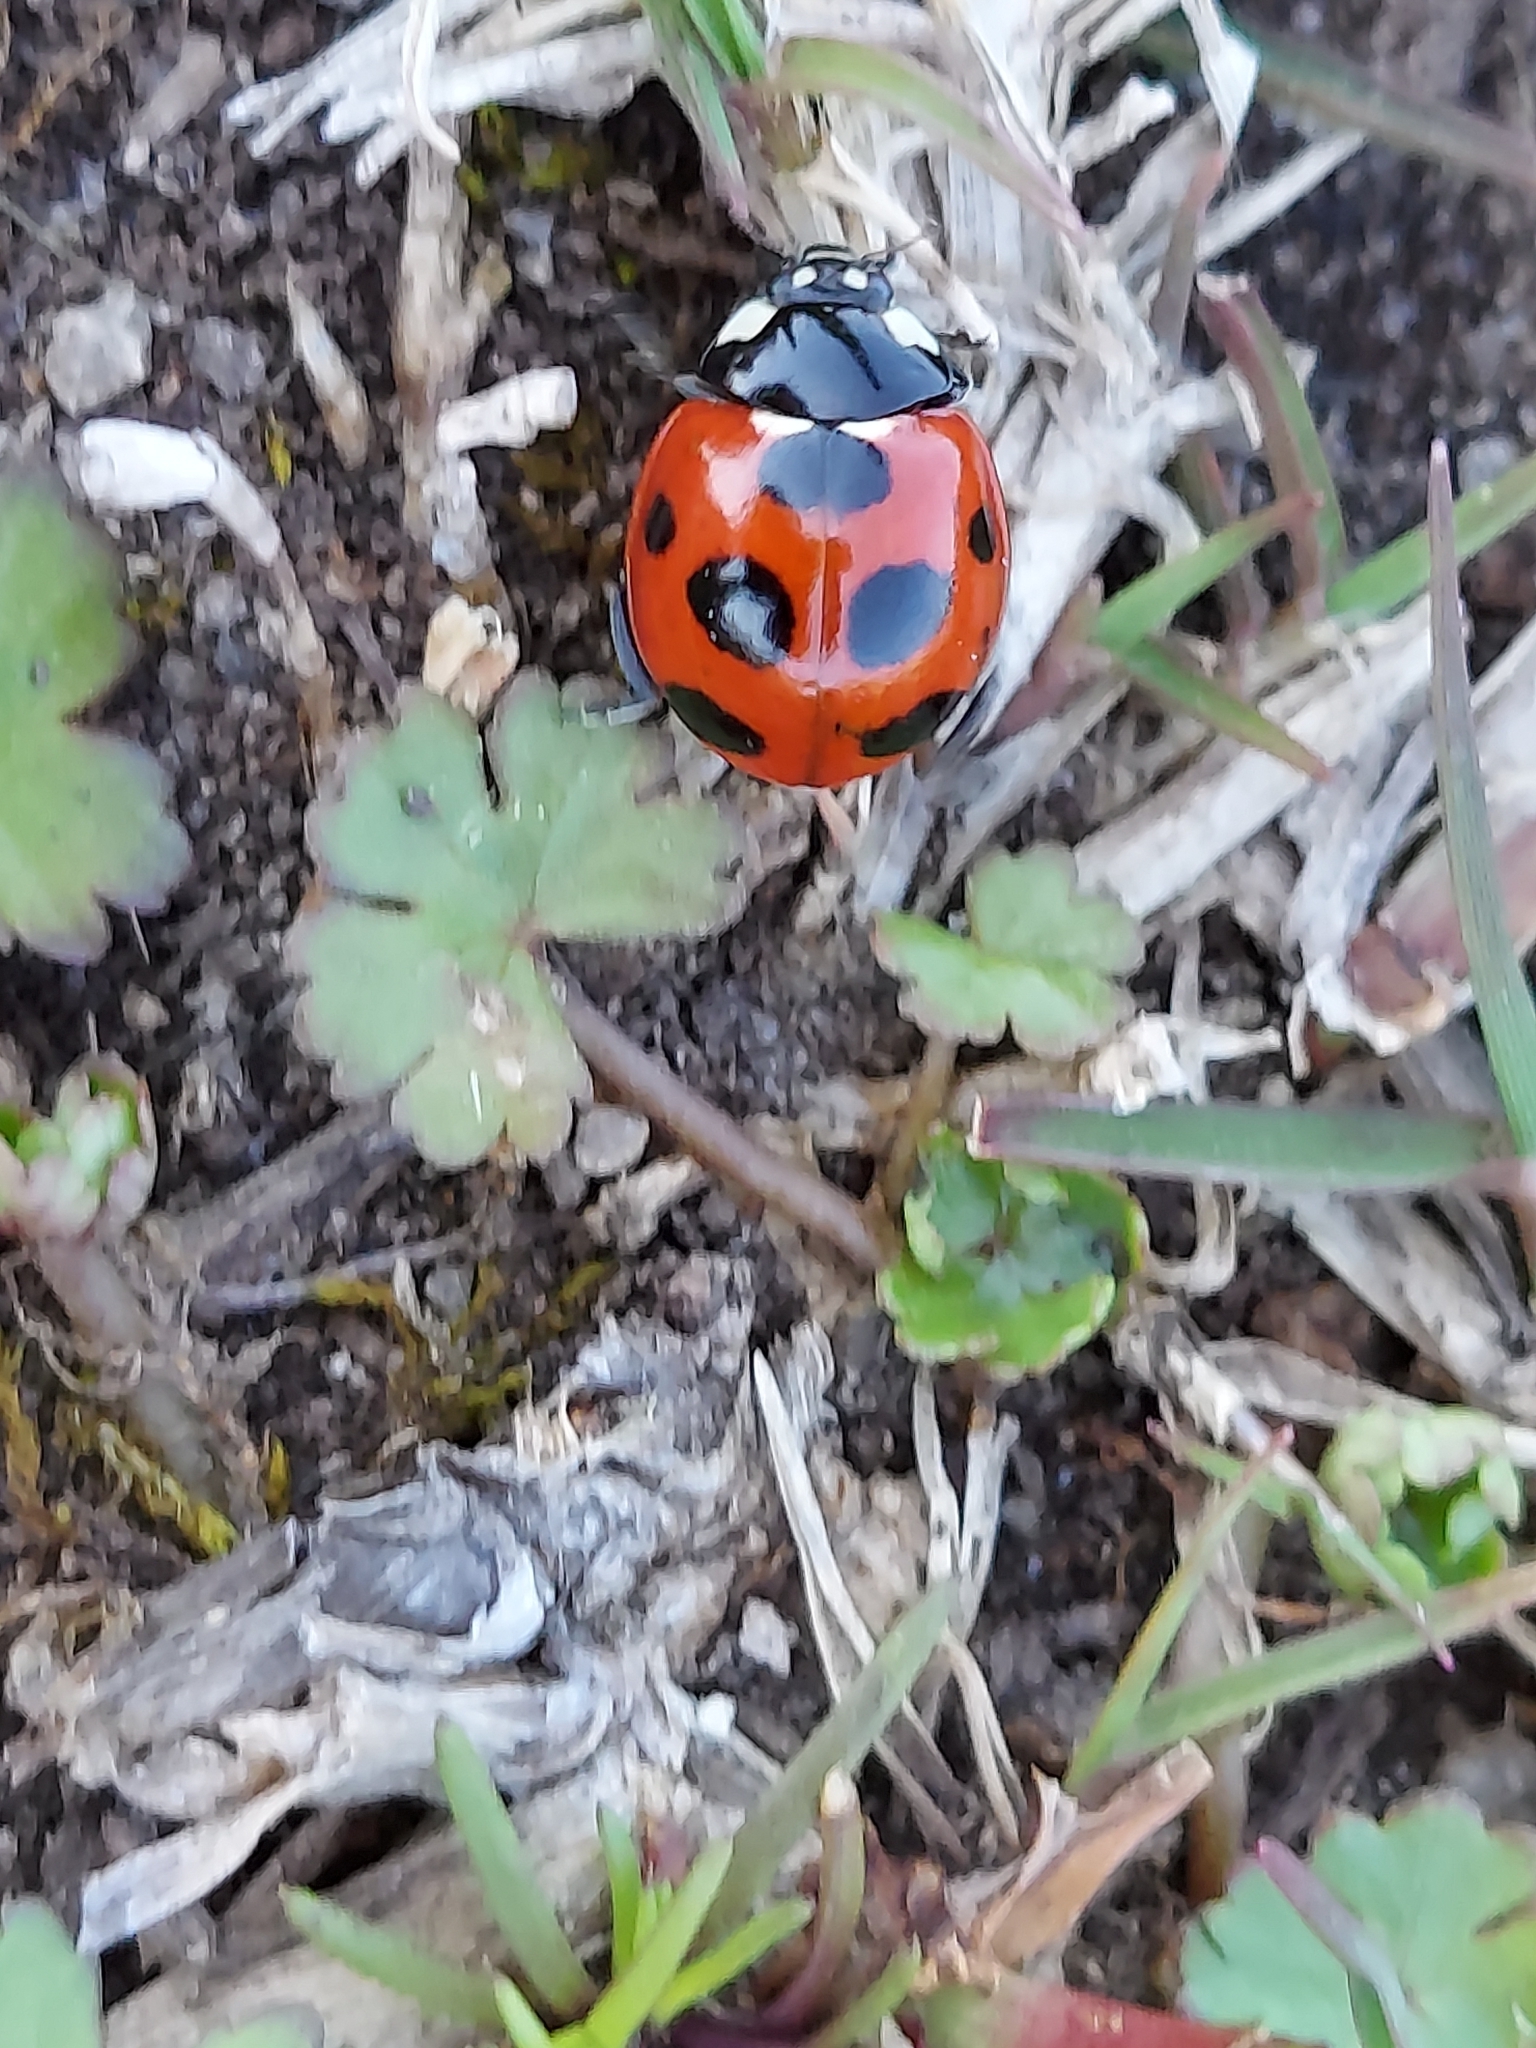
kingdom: Animalia
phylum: Arthropoda
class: Insecta
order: Coleoptera
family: Coccinellidae
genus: Coccinella
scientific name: Coccinella septempunctata
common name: Sevenspotted lady beetle
